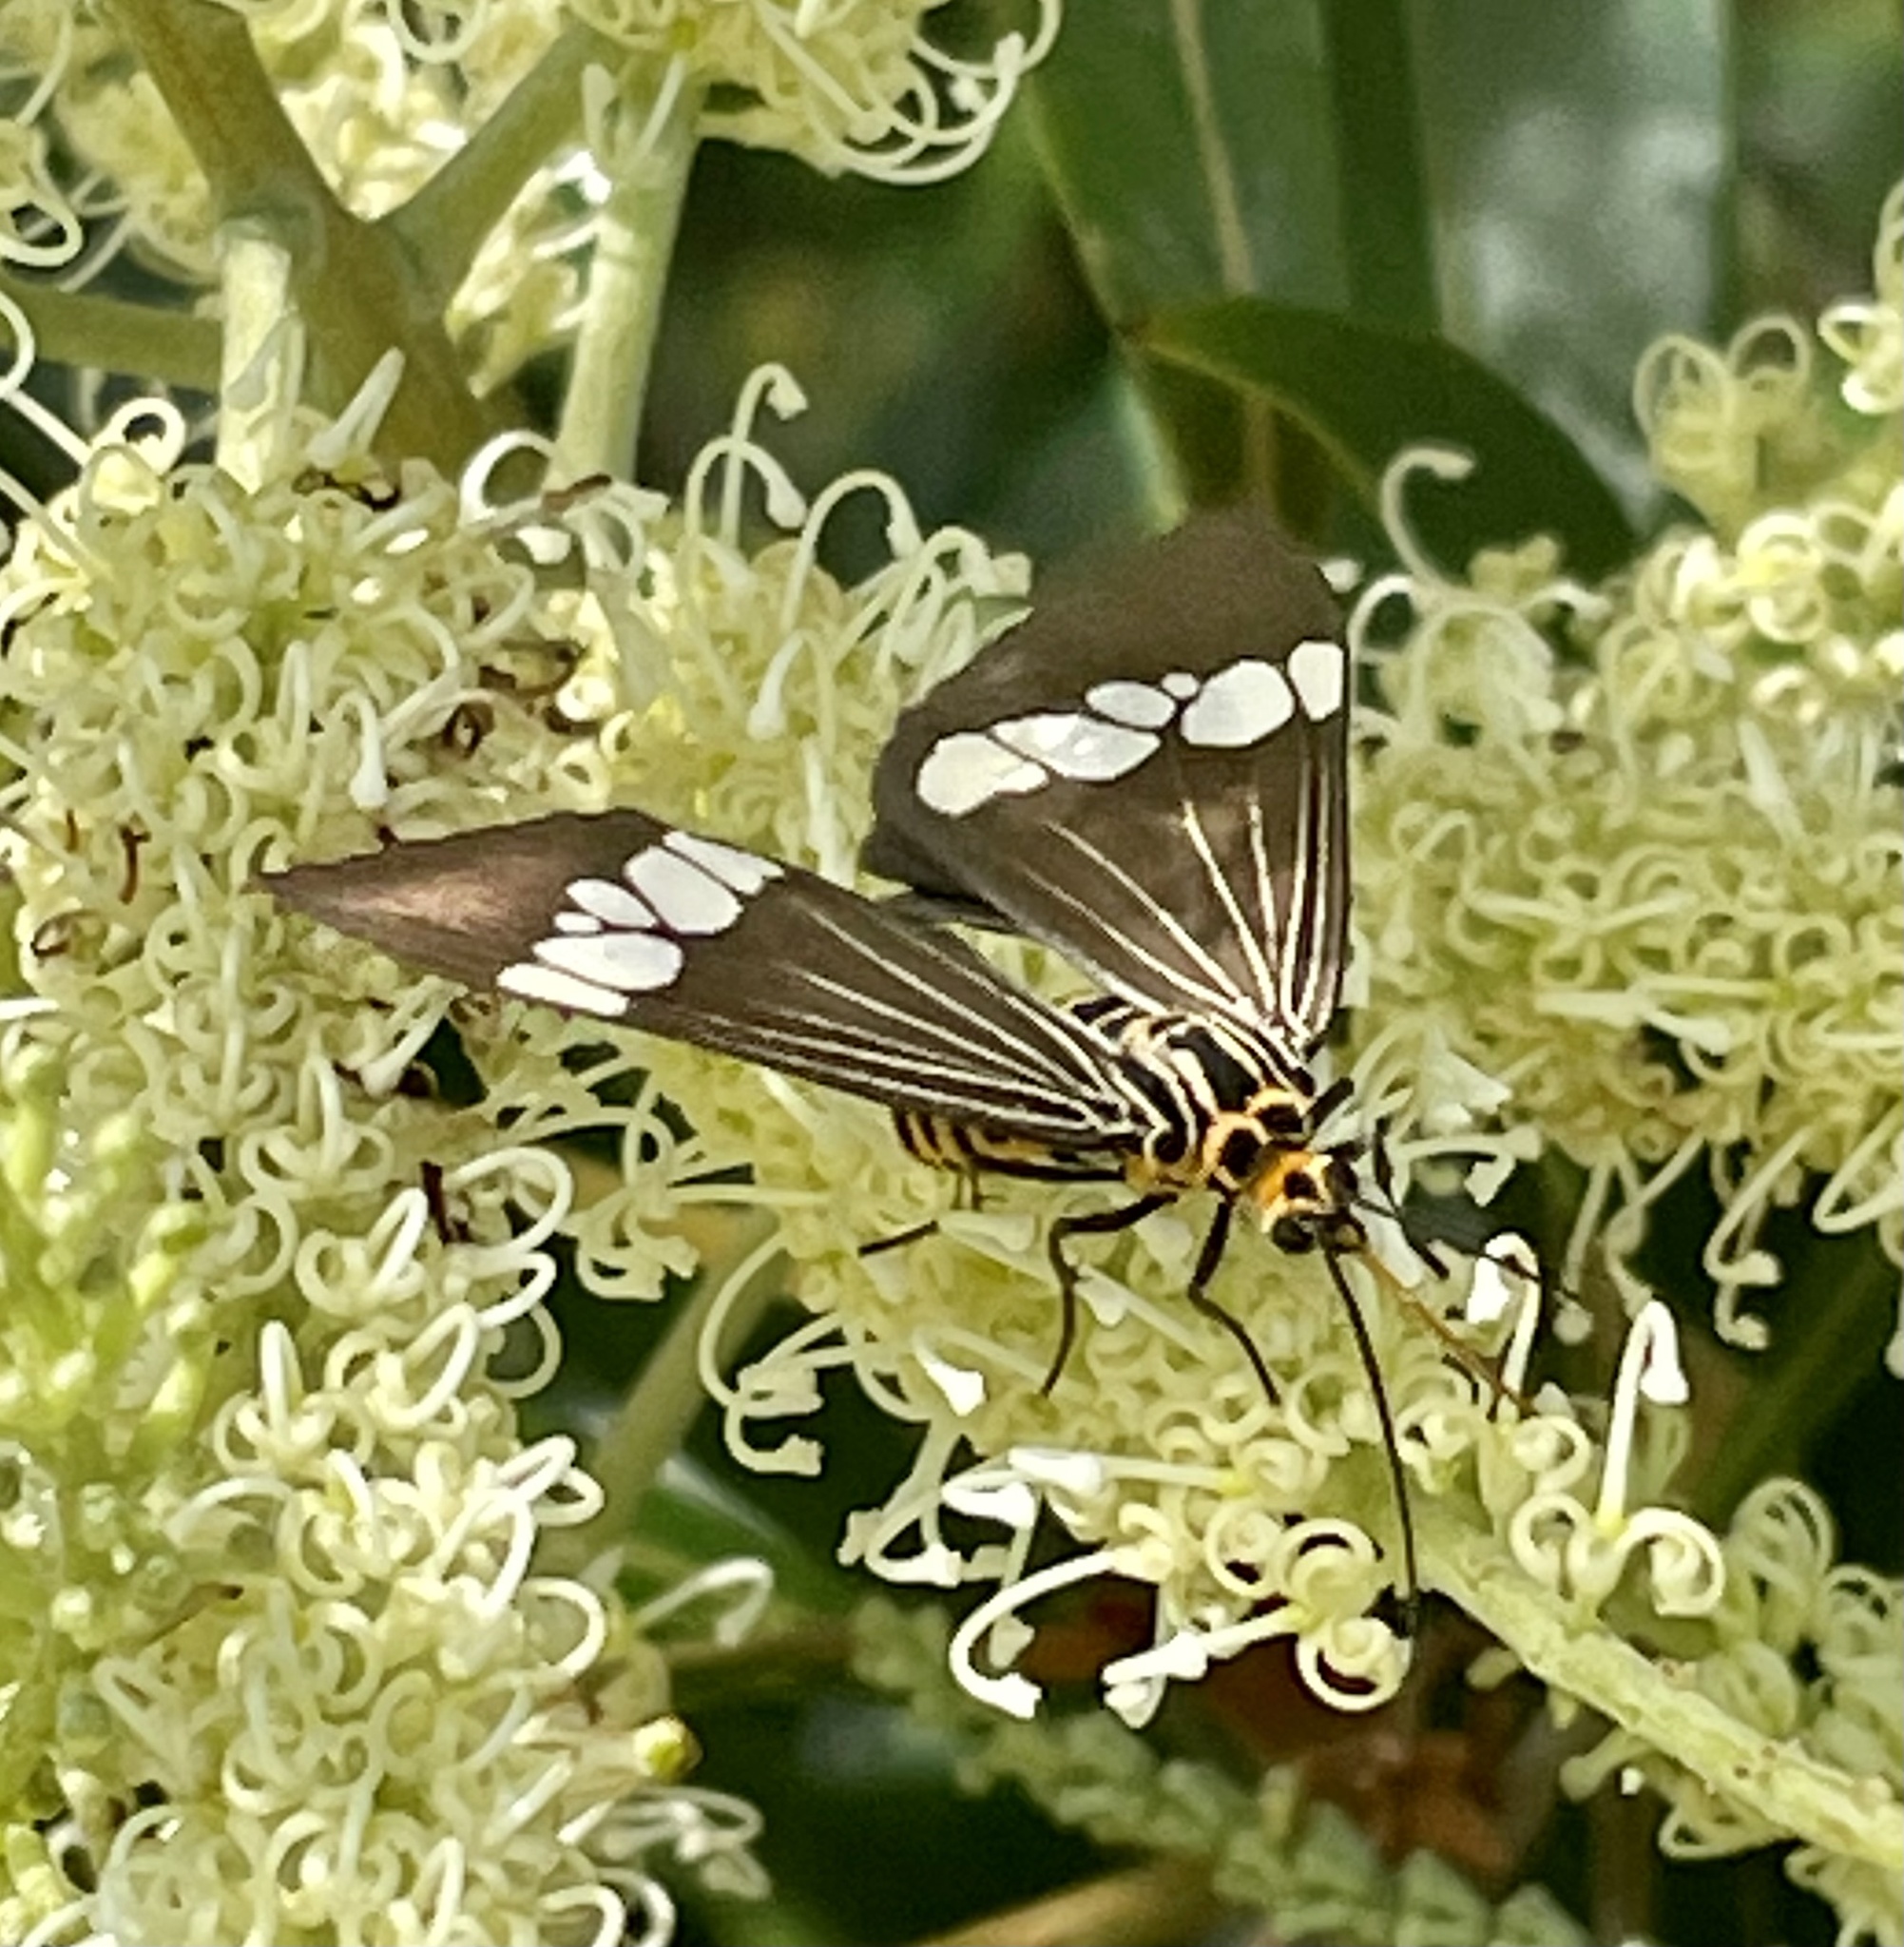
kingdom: Animalia
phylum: Arthropoda
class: Insecta
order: Lepidoptera
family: Erebidae
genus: Nyctemera
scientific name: Nyctemera baulus
